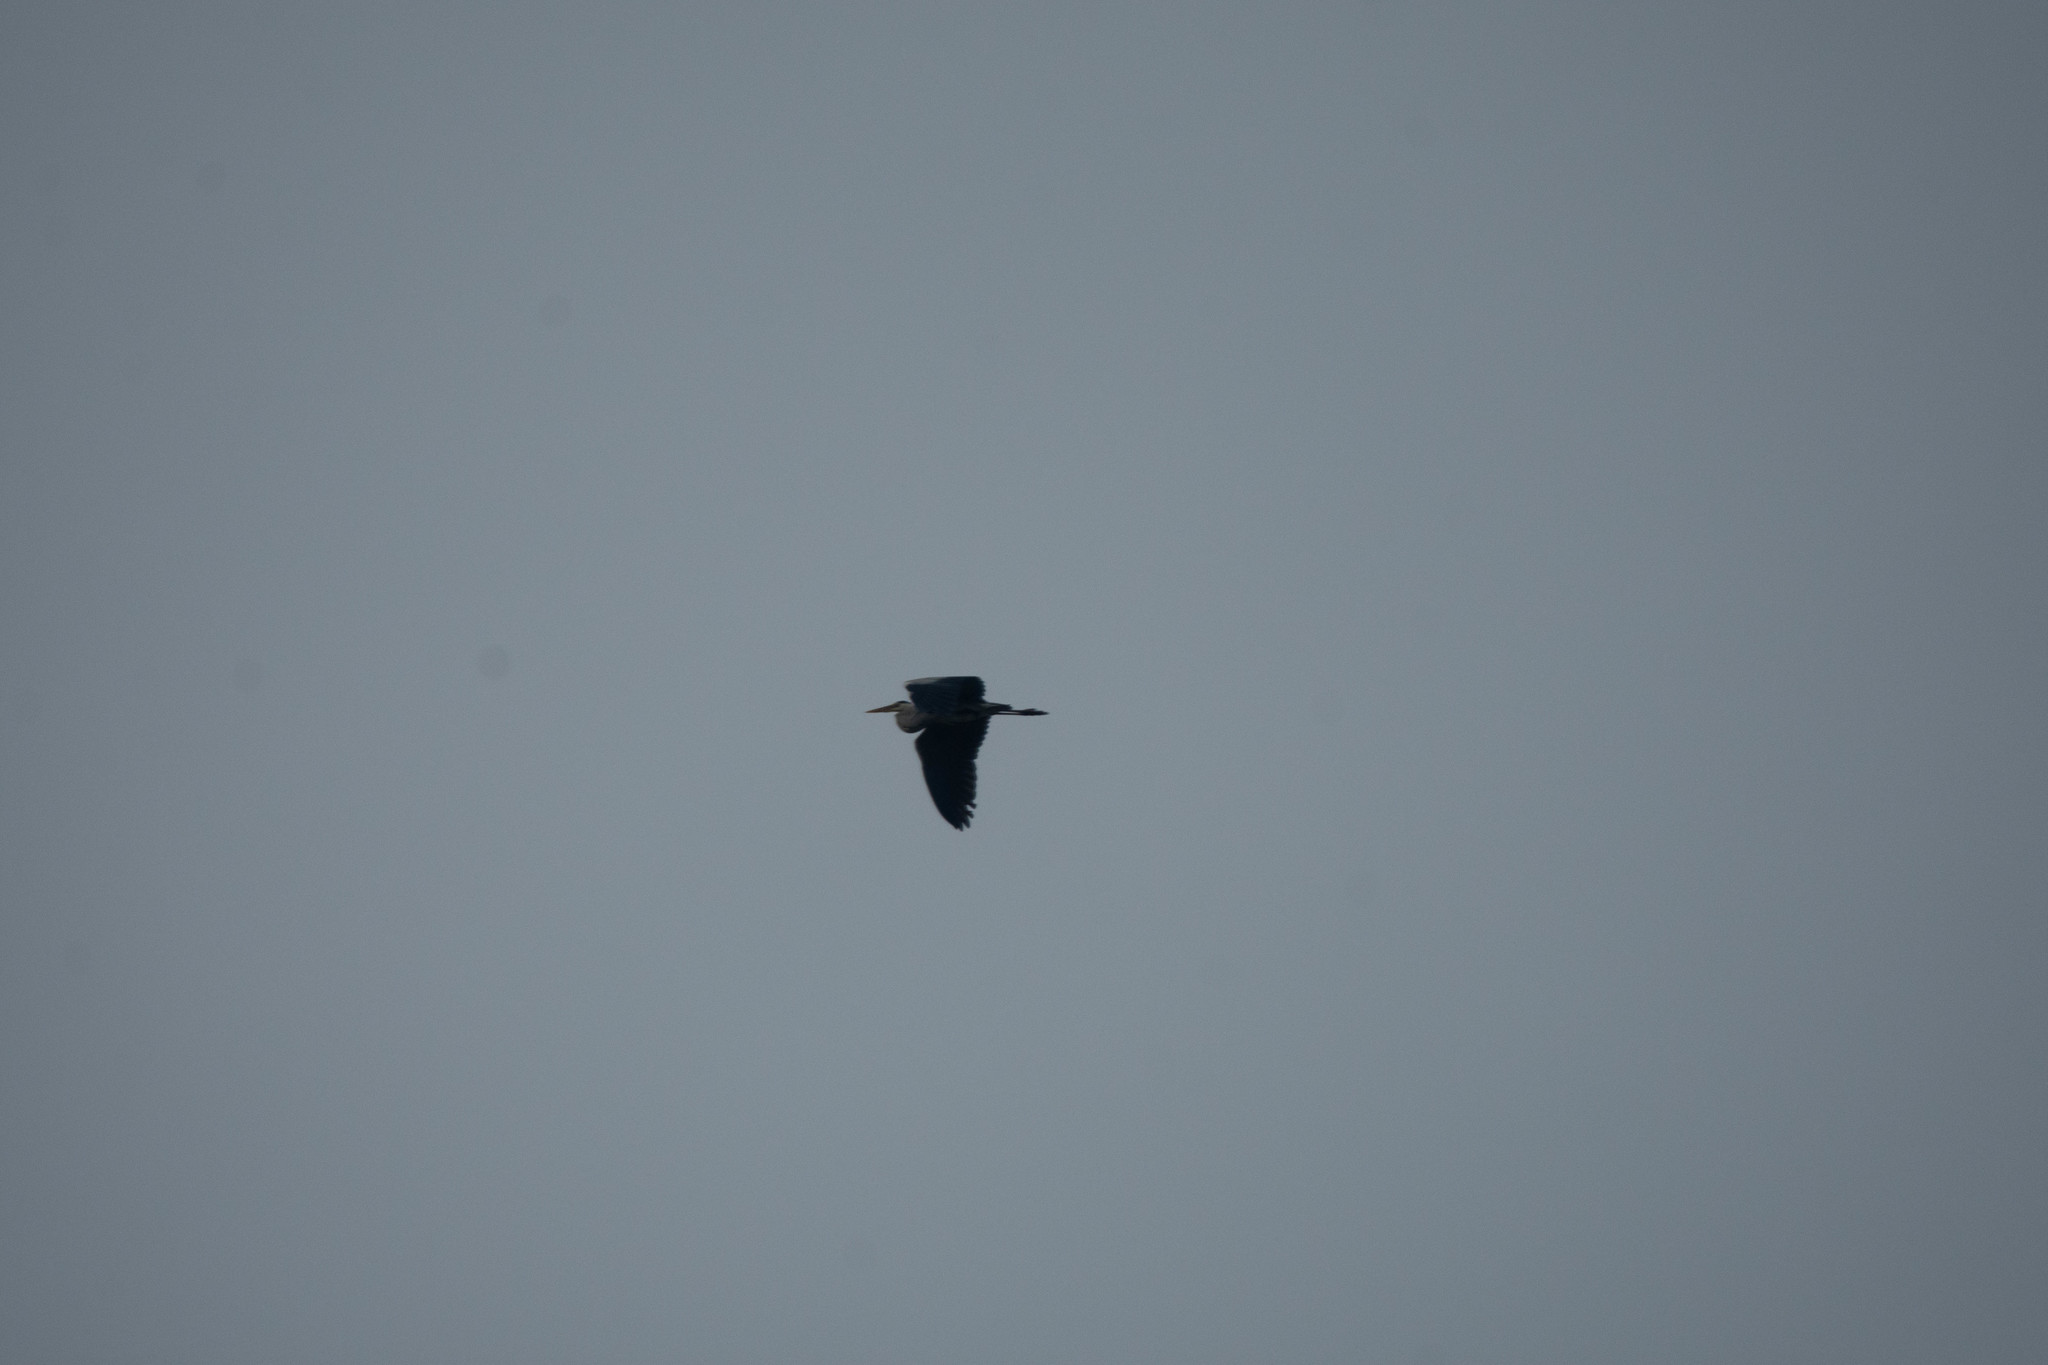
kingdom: Animalia
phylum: Chordata
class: Aves
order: Pelecaniformes
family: Ardeidae
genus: Ardea
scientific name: Ardea cinerea
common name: Grey heron
